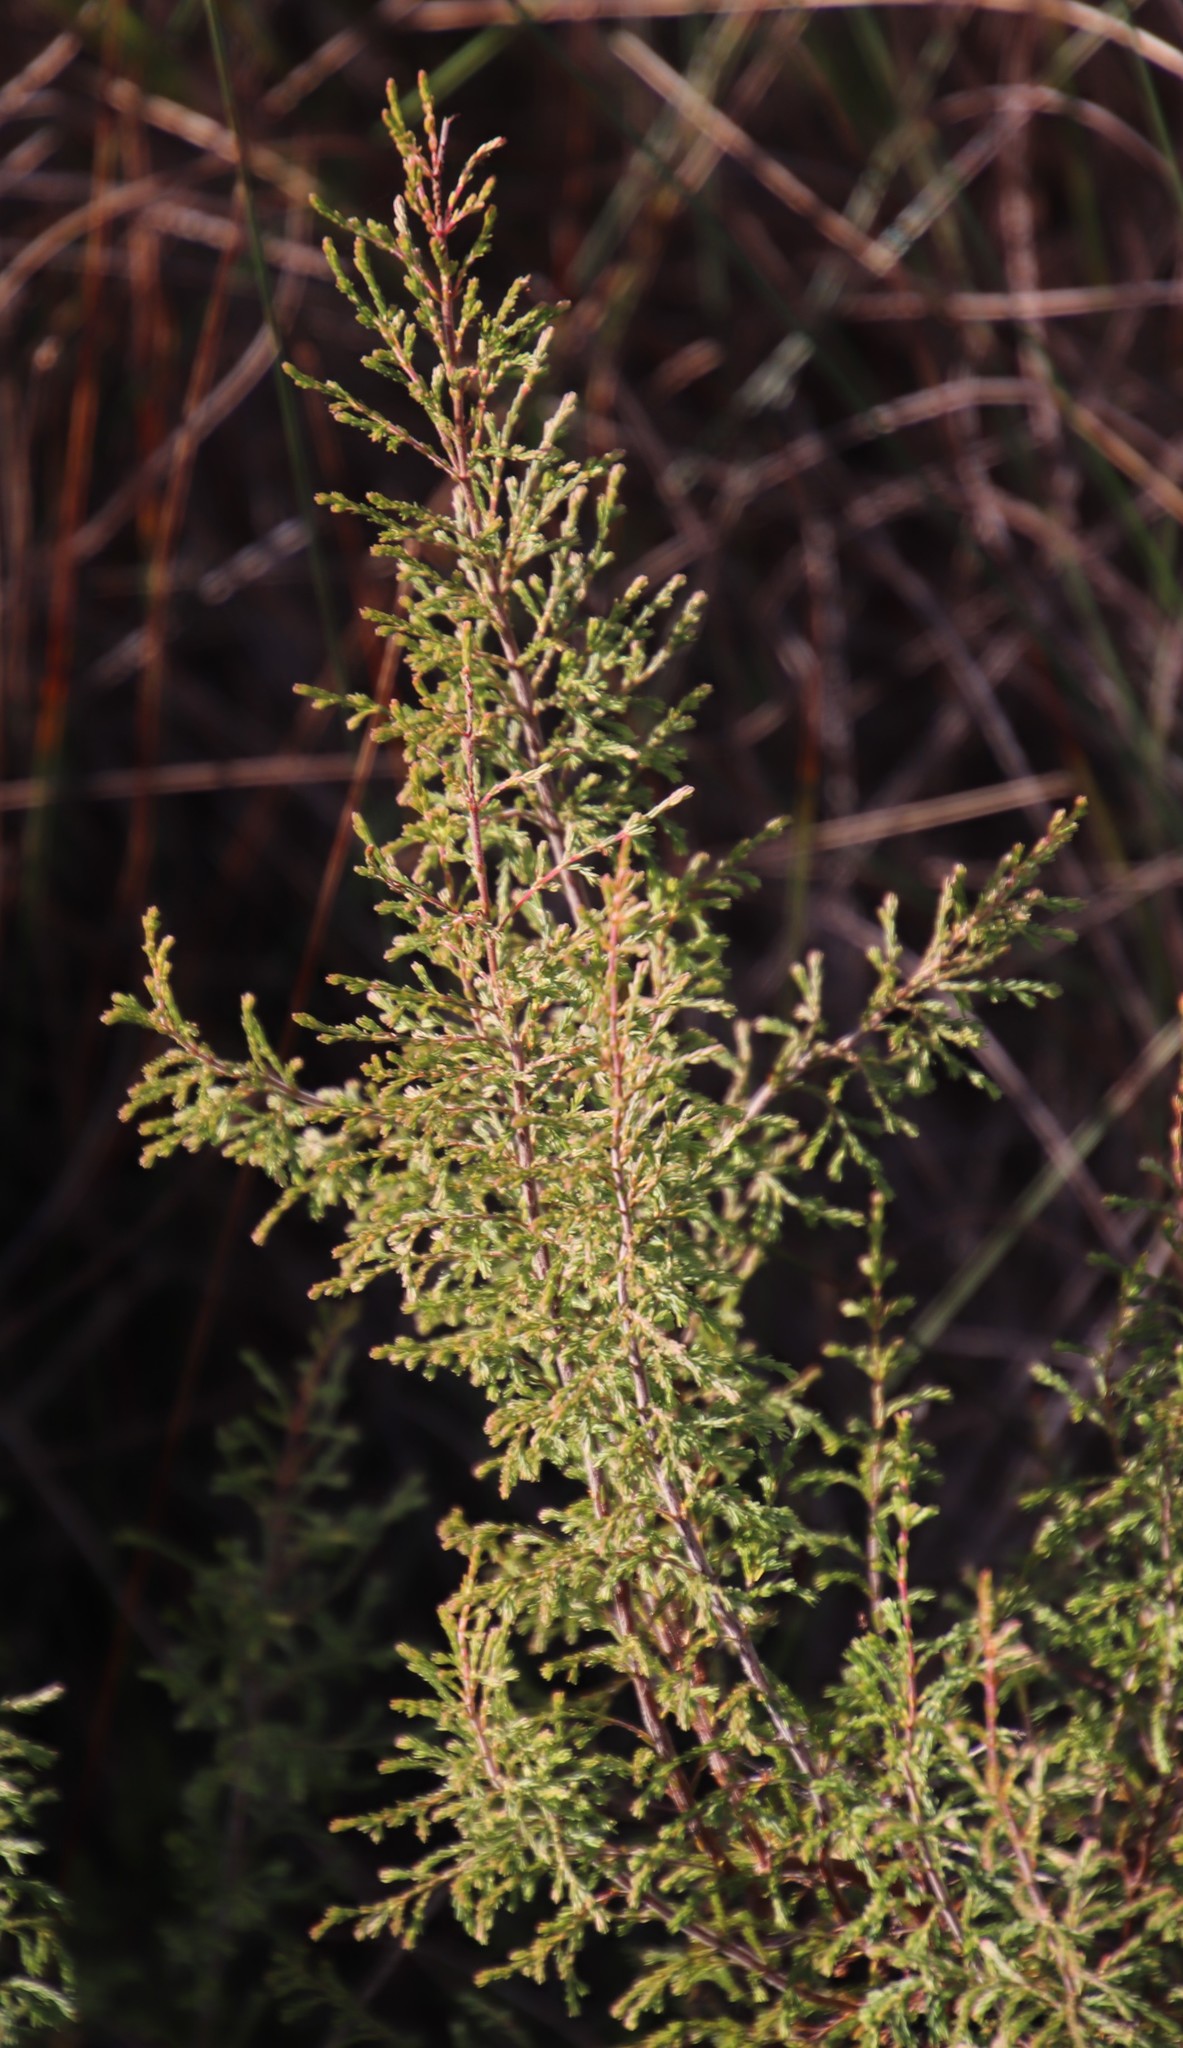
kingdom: Plantae
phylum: Tracheophyta
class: Magnoliopsida
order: Ericales
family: Ericaceae
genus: Erica
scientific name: Erica mauritanica
